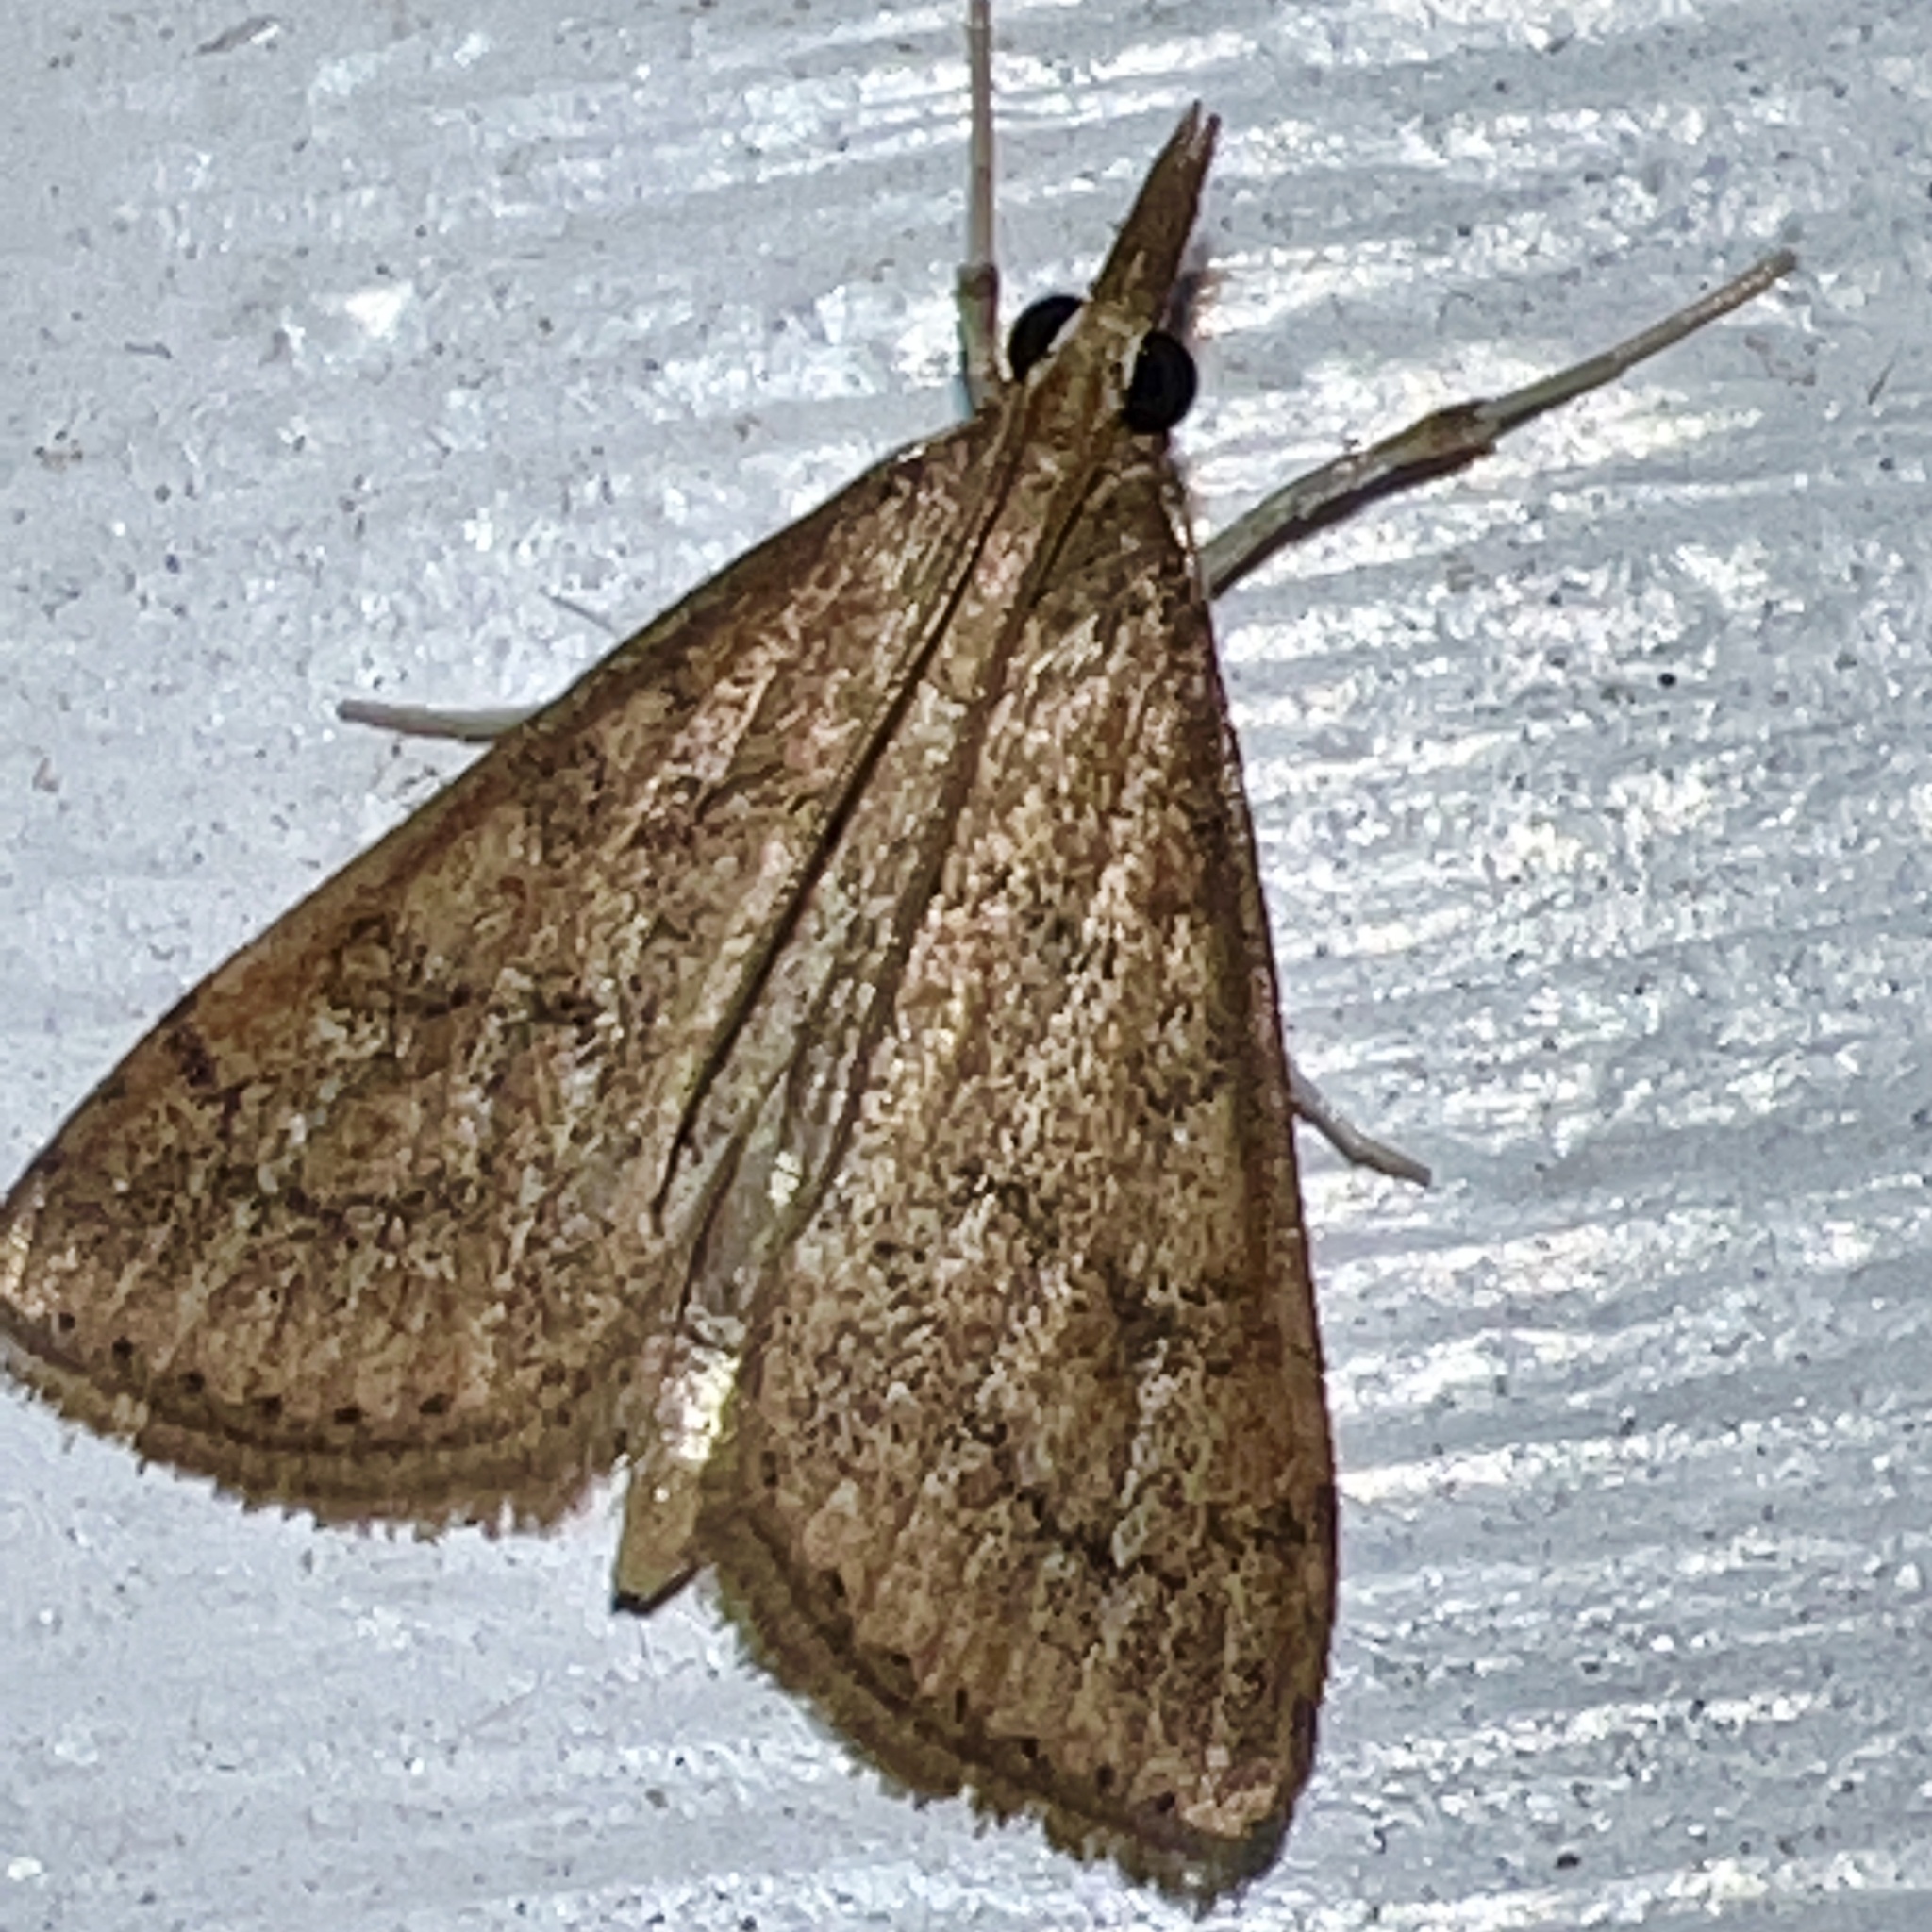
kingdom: Animalia
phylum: Arthropoda
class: Insecta
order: Lepidoptera
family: Crambidae
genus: Udea
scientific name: Udea rubigalis
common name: Celery leaftier moth
